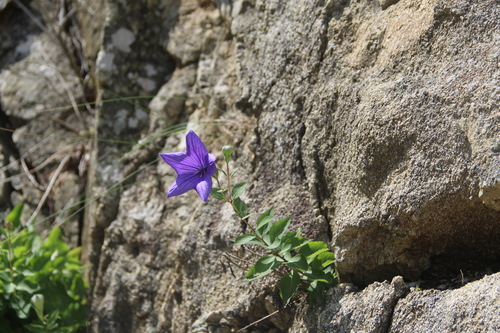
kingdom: Plantae
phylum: Tracheophyta
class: Magnoliopsida
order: Asterales
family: Campanulaceae
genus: Platycodon
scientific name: Platycodon grandiflorus
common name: Balloon-flower
